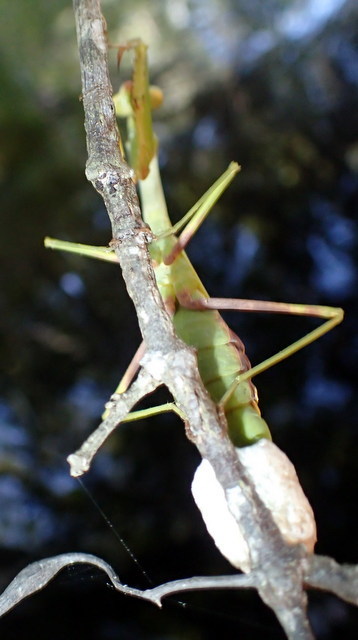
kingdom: Animalia
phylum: Arthropoda
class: Insecta
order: Mantodea
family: Mantidae
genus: Stagmomantis
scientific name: Stagmomantis carolina
